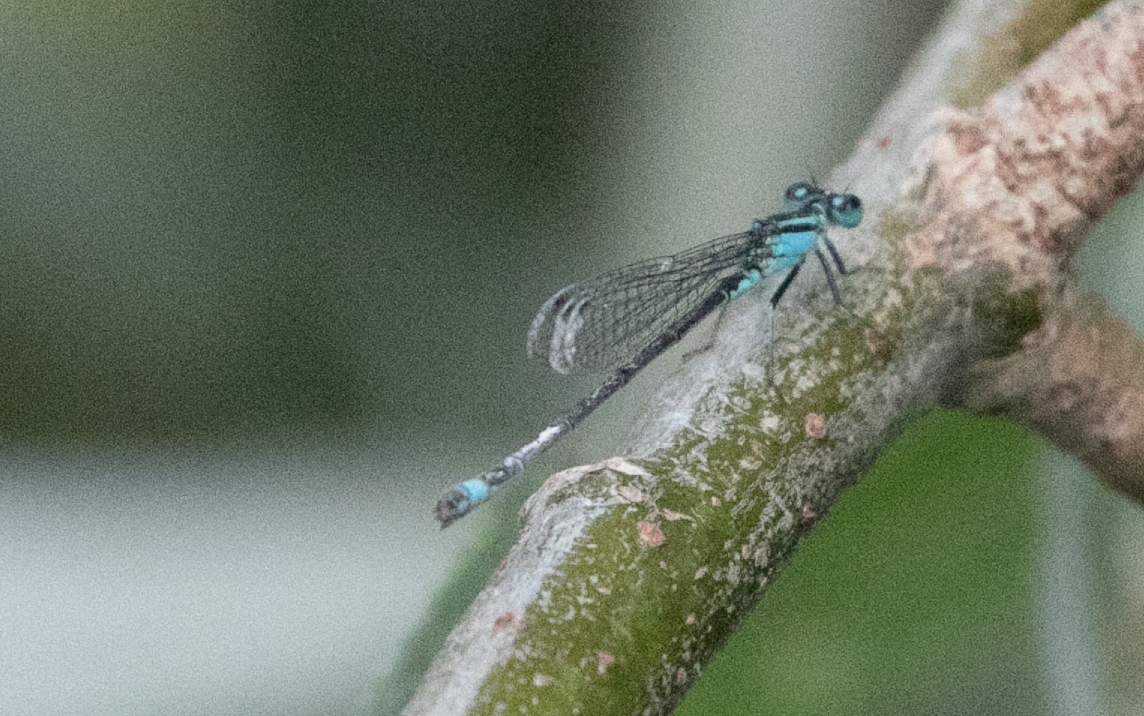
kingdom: Animalia
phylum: Arthropoda
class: Insecta
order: Odonata
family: Coenagrionidae
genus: Ischnura
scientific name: Ischnura elegans
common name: Blue-tailed damselfly
